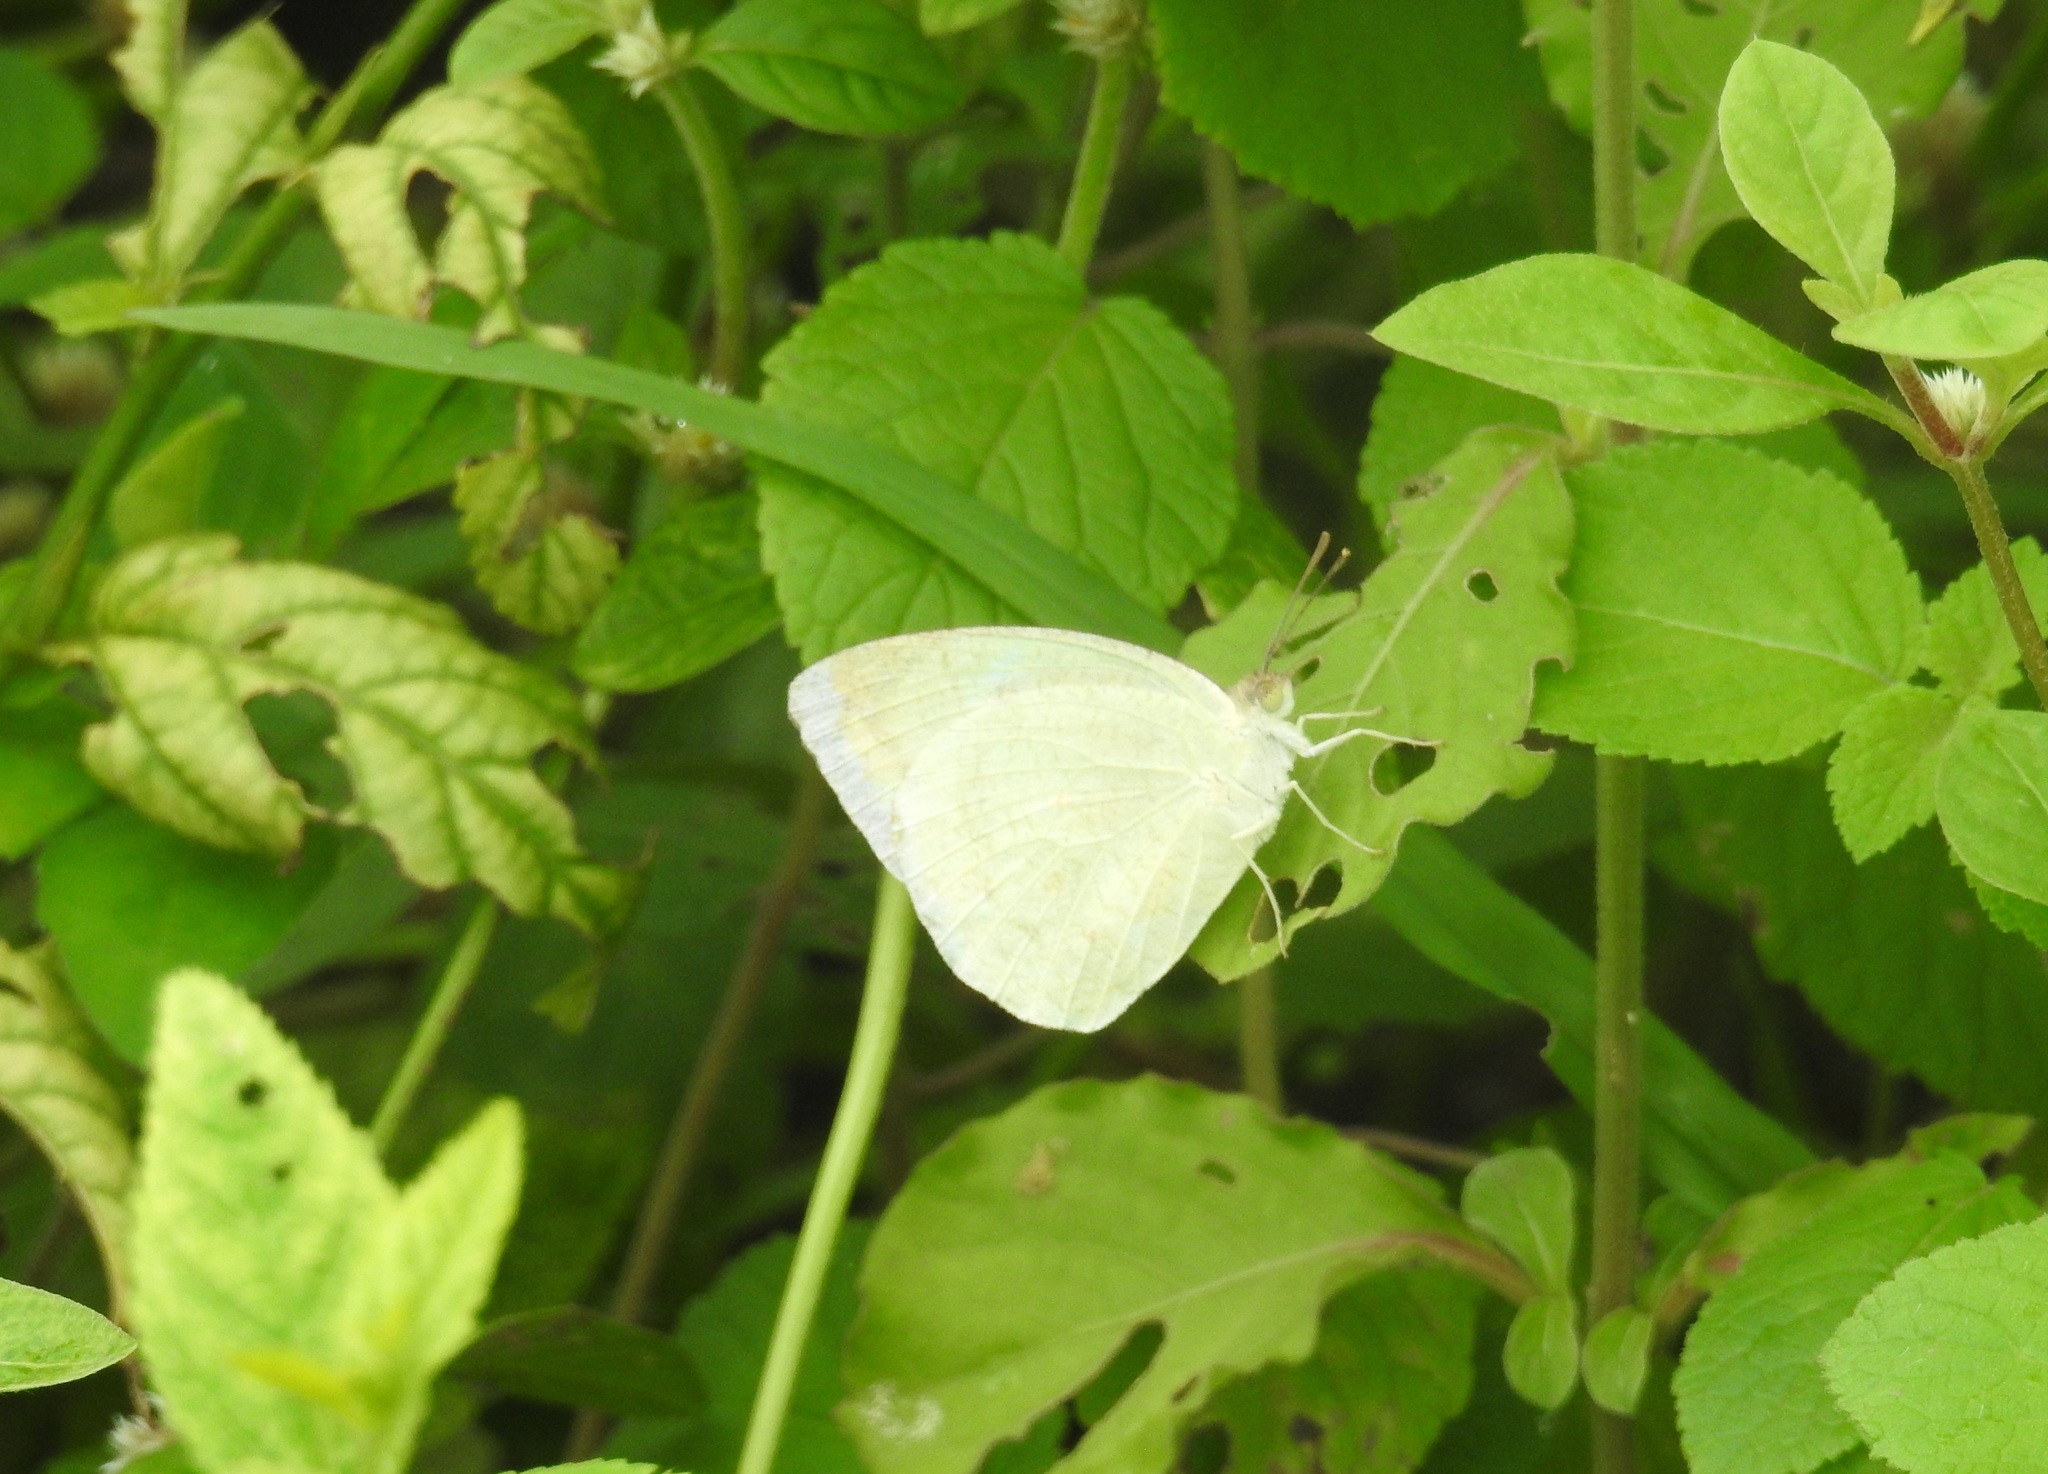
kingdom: Animalia
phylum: Arthropoda
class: Insecta
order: Lepidoptera
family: Pieridae
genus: Catopsilia
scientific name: Catopsilia pyranthe
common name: Mottled emigrant
